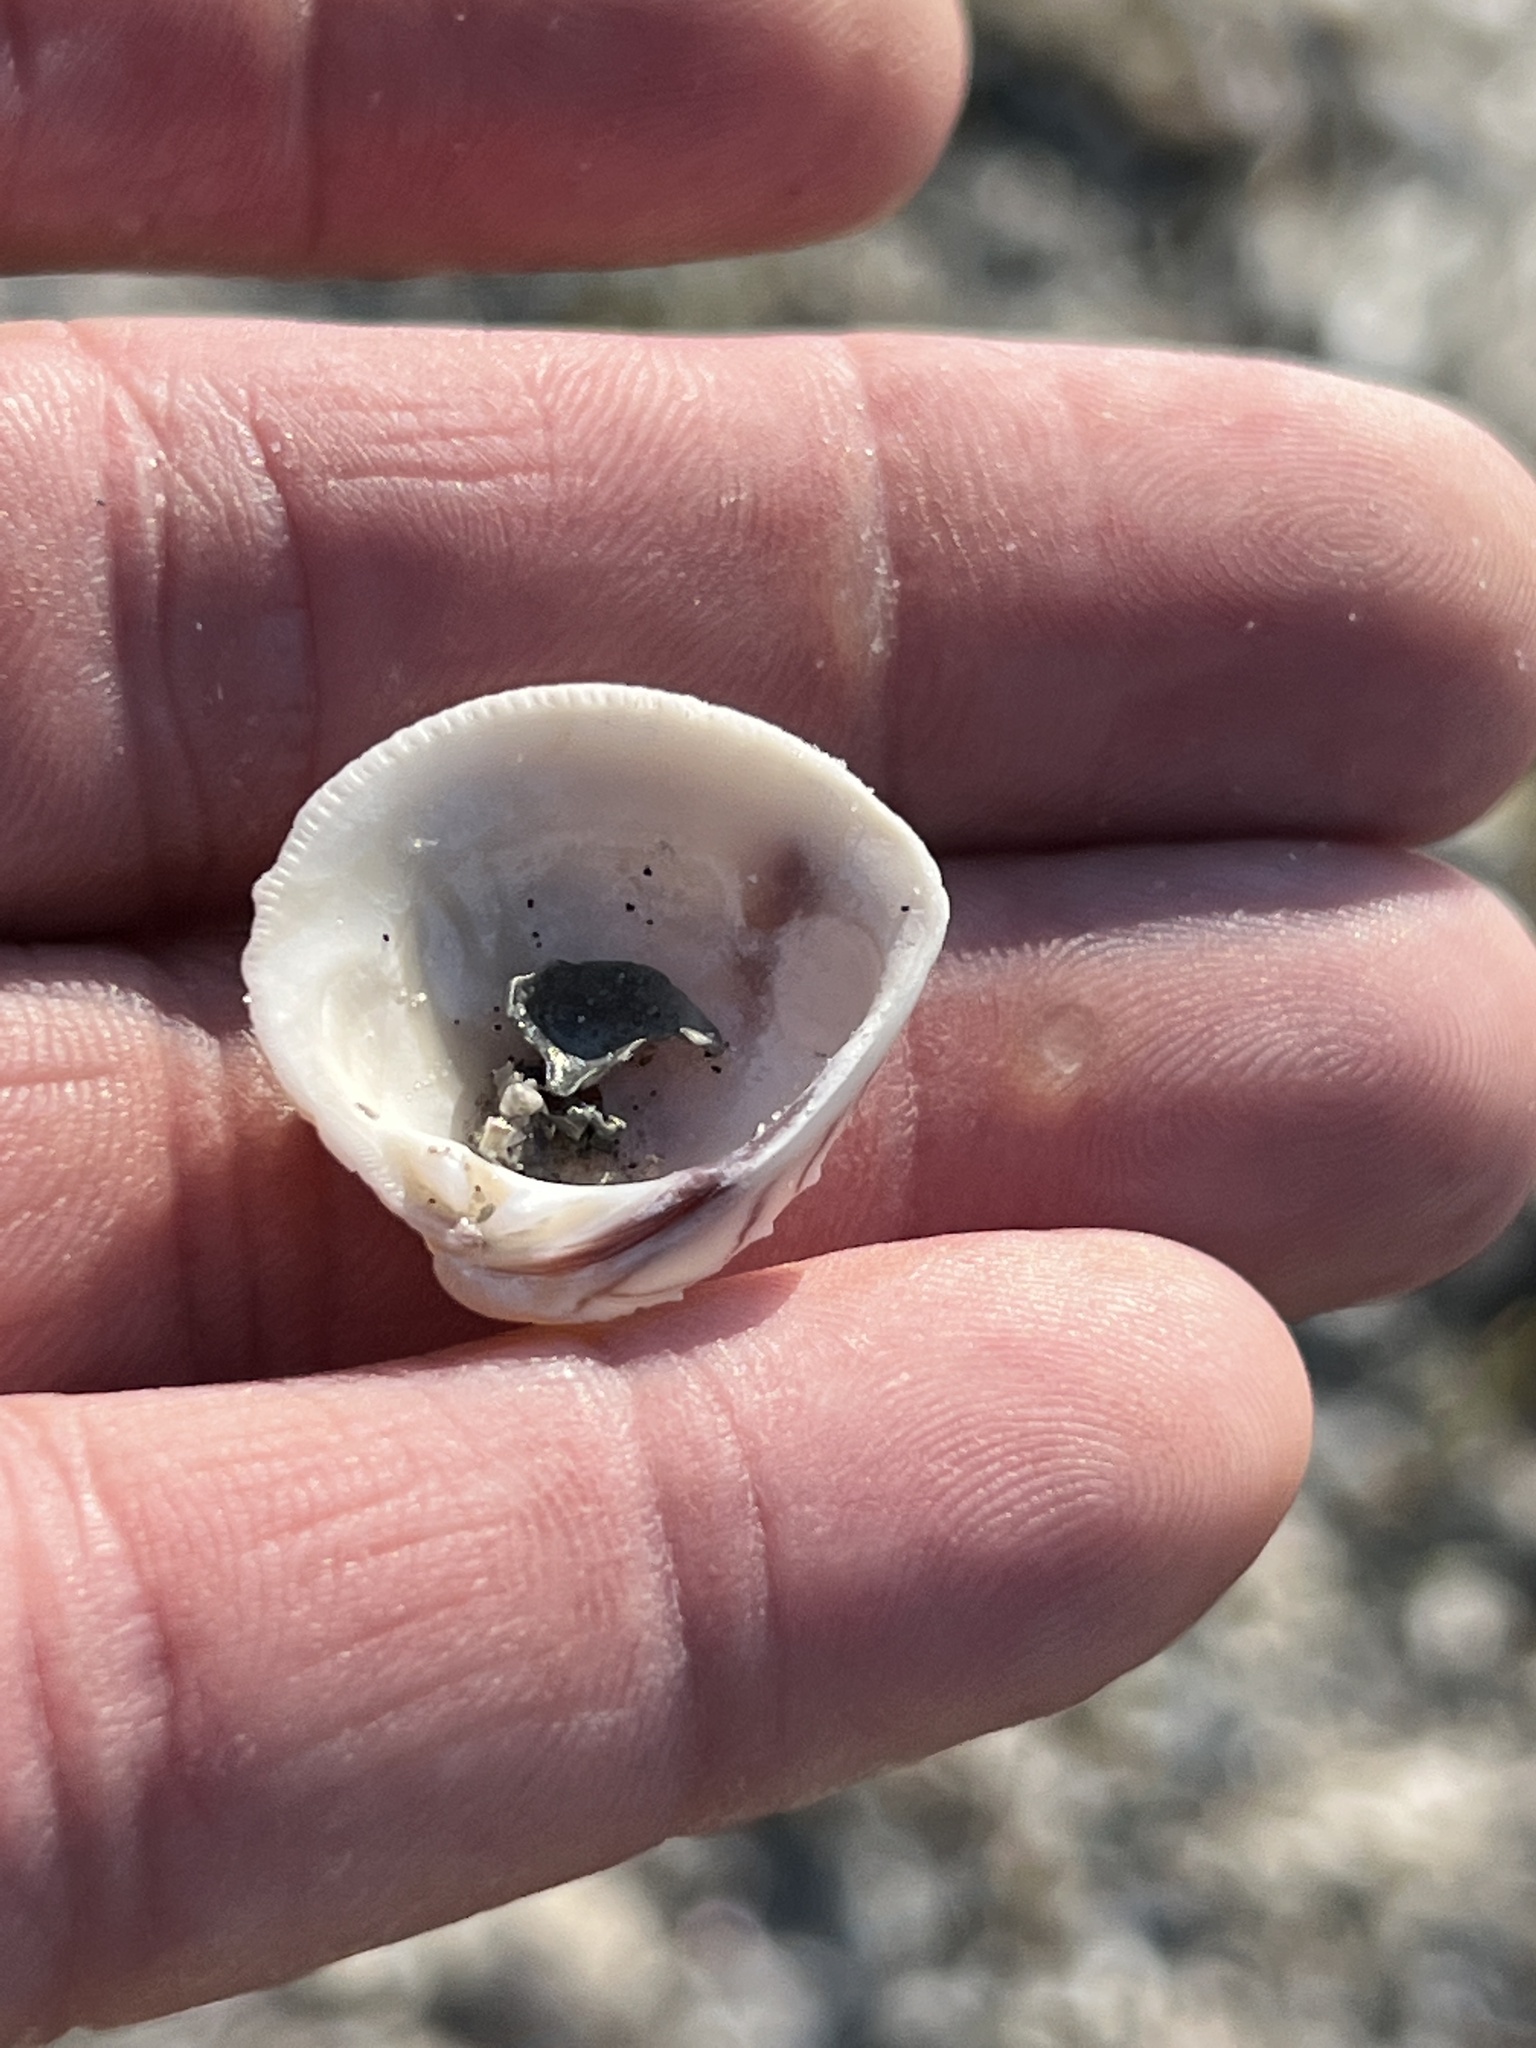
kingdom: Animalia
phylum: Mollusca
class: Bivalvia
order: Venerida
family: Veneridae
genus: Chione
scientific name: Chione elevata
